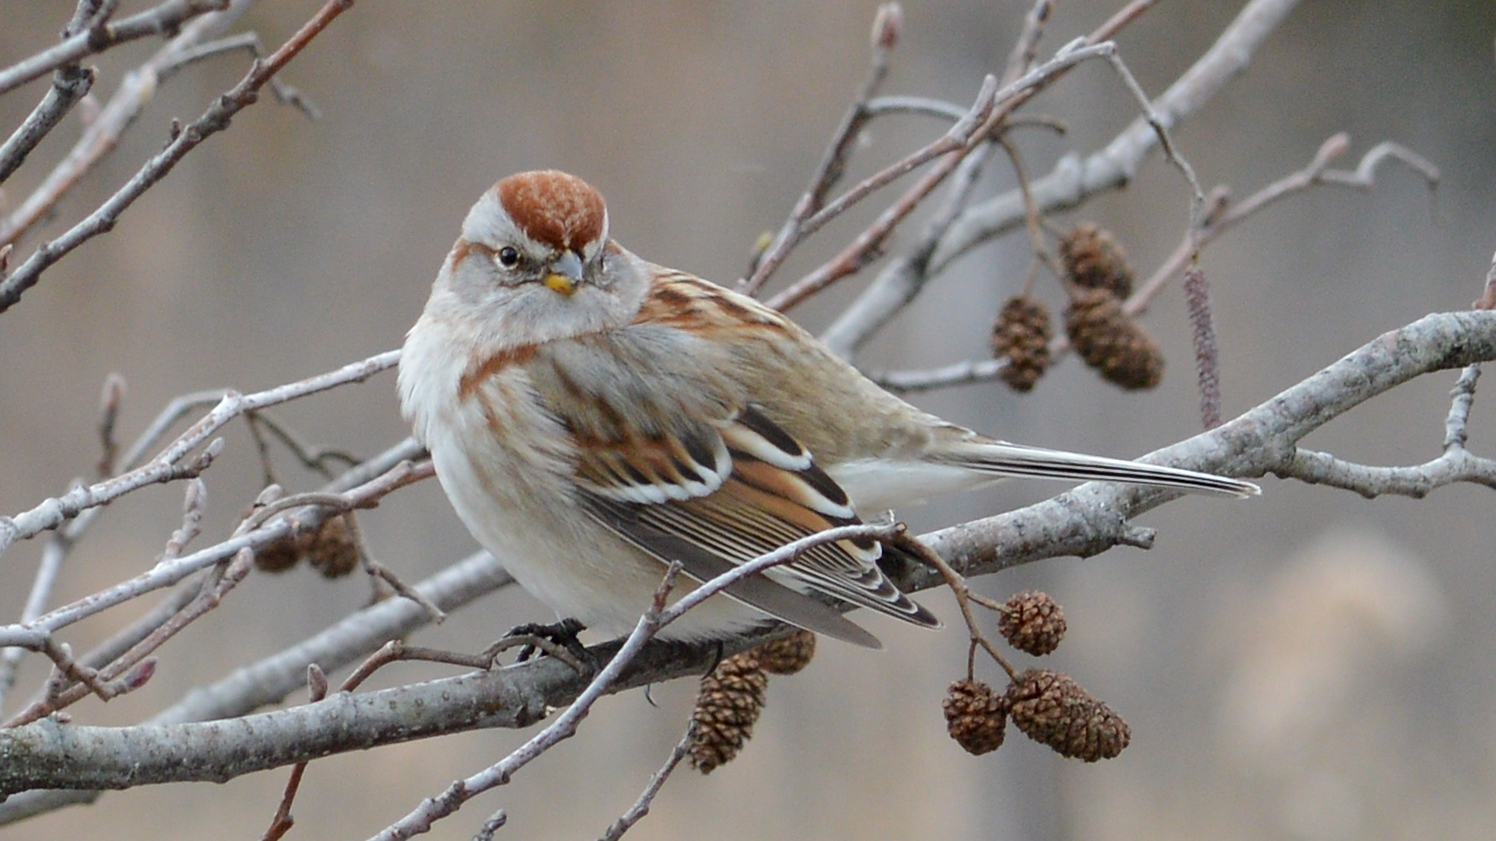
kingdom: Animalia
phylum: Chordata
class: Aves
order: Passeriformes
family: Passerellidae
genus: Spizelloides
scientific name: Spizelloides arborea
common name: American tree sparrow
